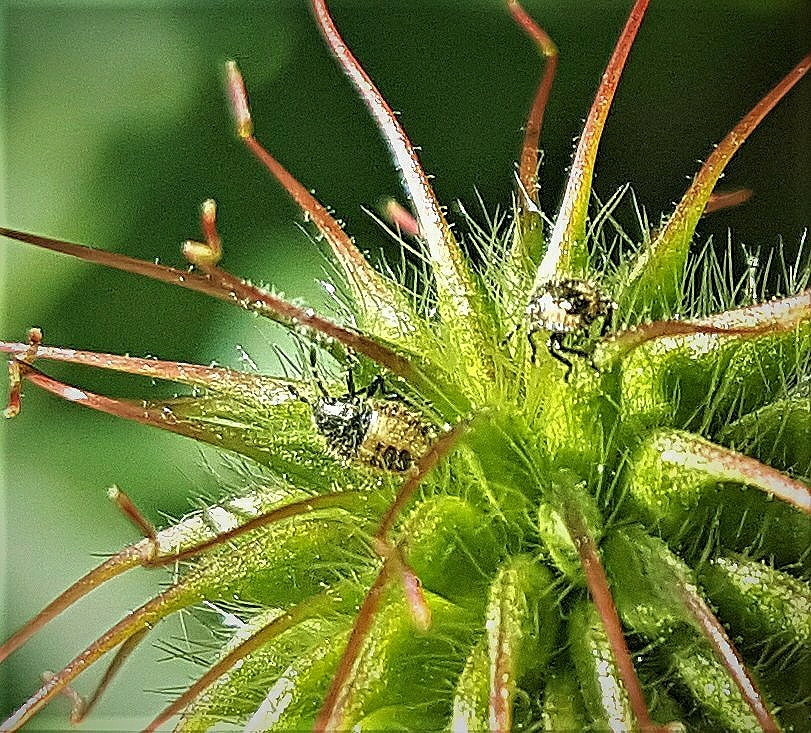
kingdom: Animalia
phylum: Arthropoda
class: Insecta
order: Hemiptera
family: Pentatomidae
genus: Dolycoris
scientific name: Dolycoris baccarum
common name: Sloe bug
